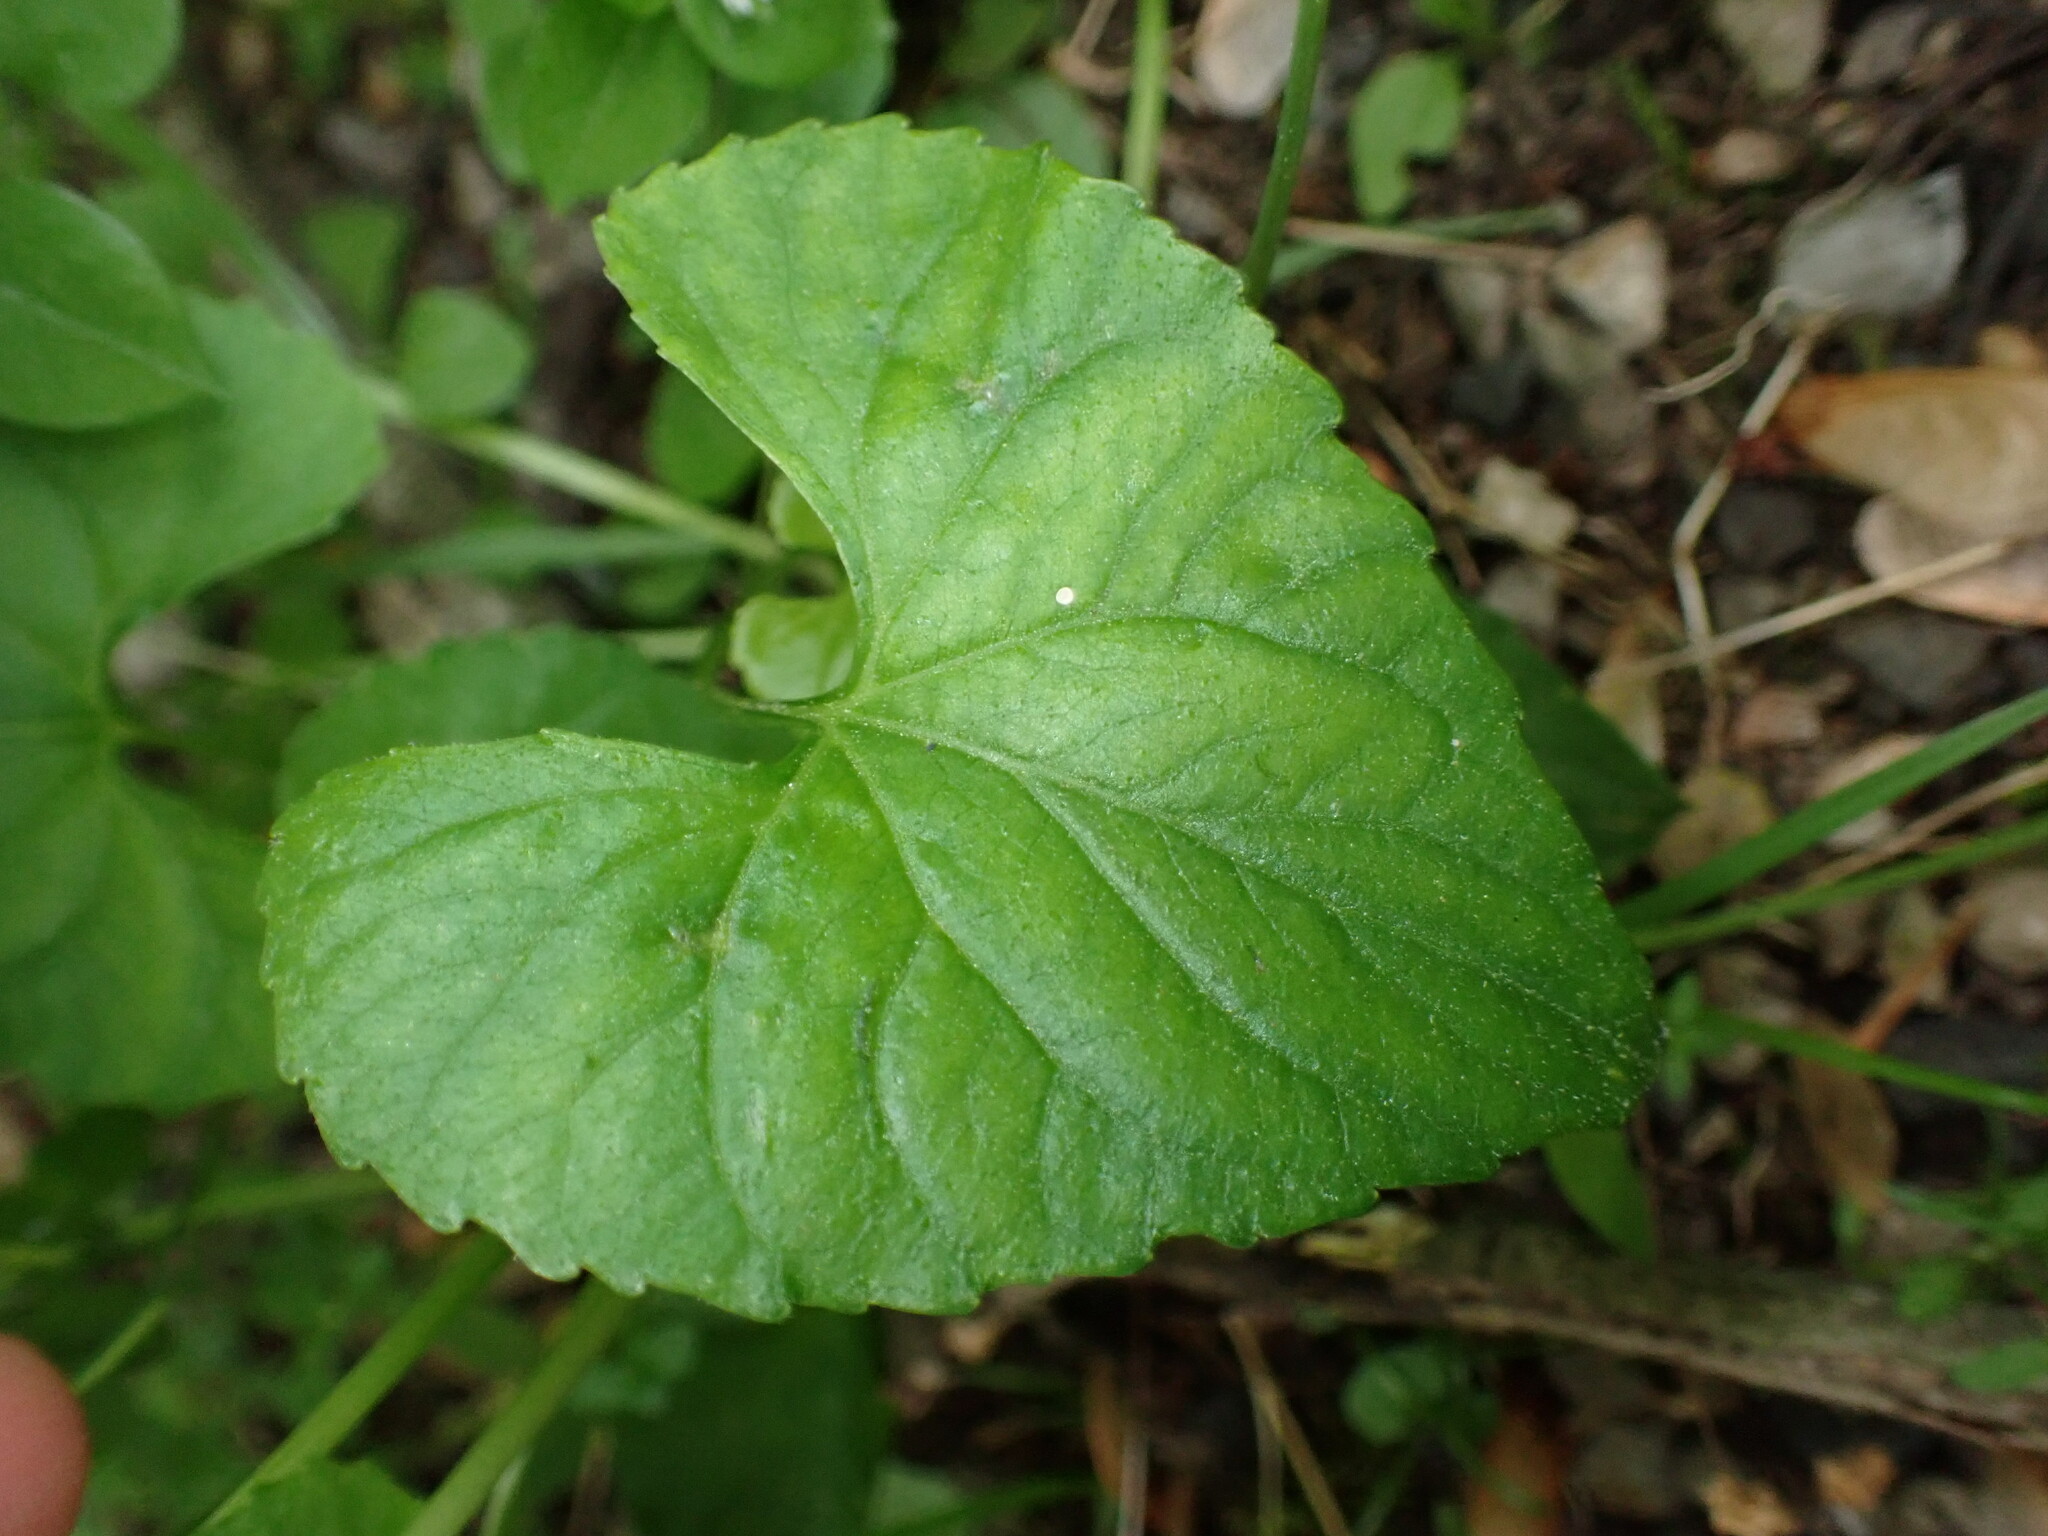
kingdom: Plantae
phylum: Tracheophyta
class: Magnoliopsida
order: Malpighiales
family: Violaceae
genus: Viola
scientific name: Viola cucullata
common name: Marsh blue violet
